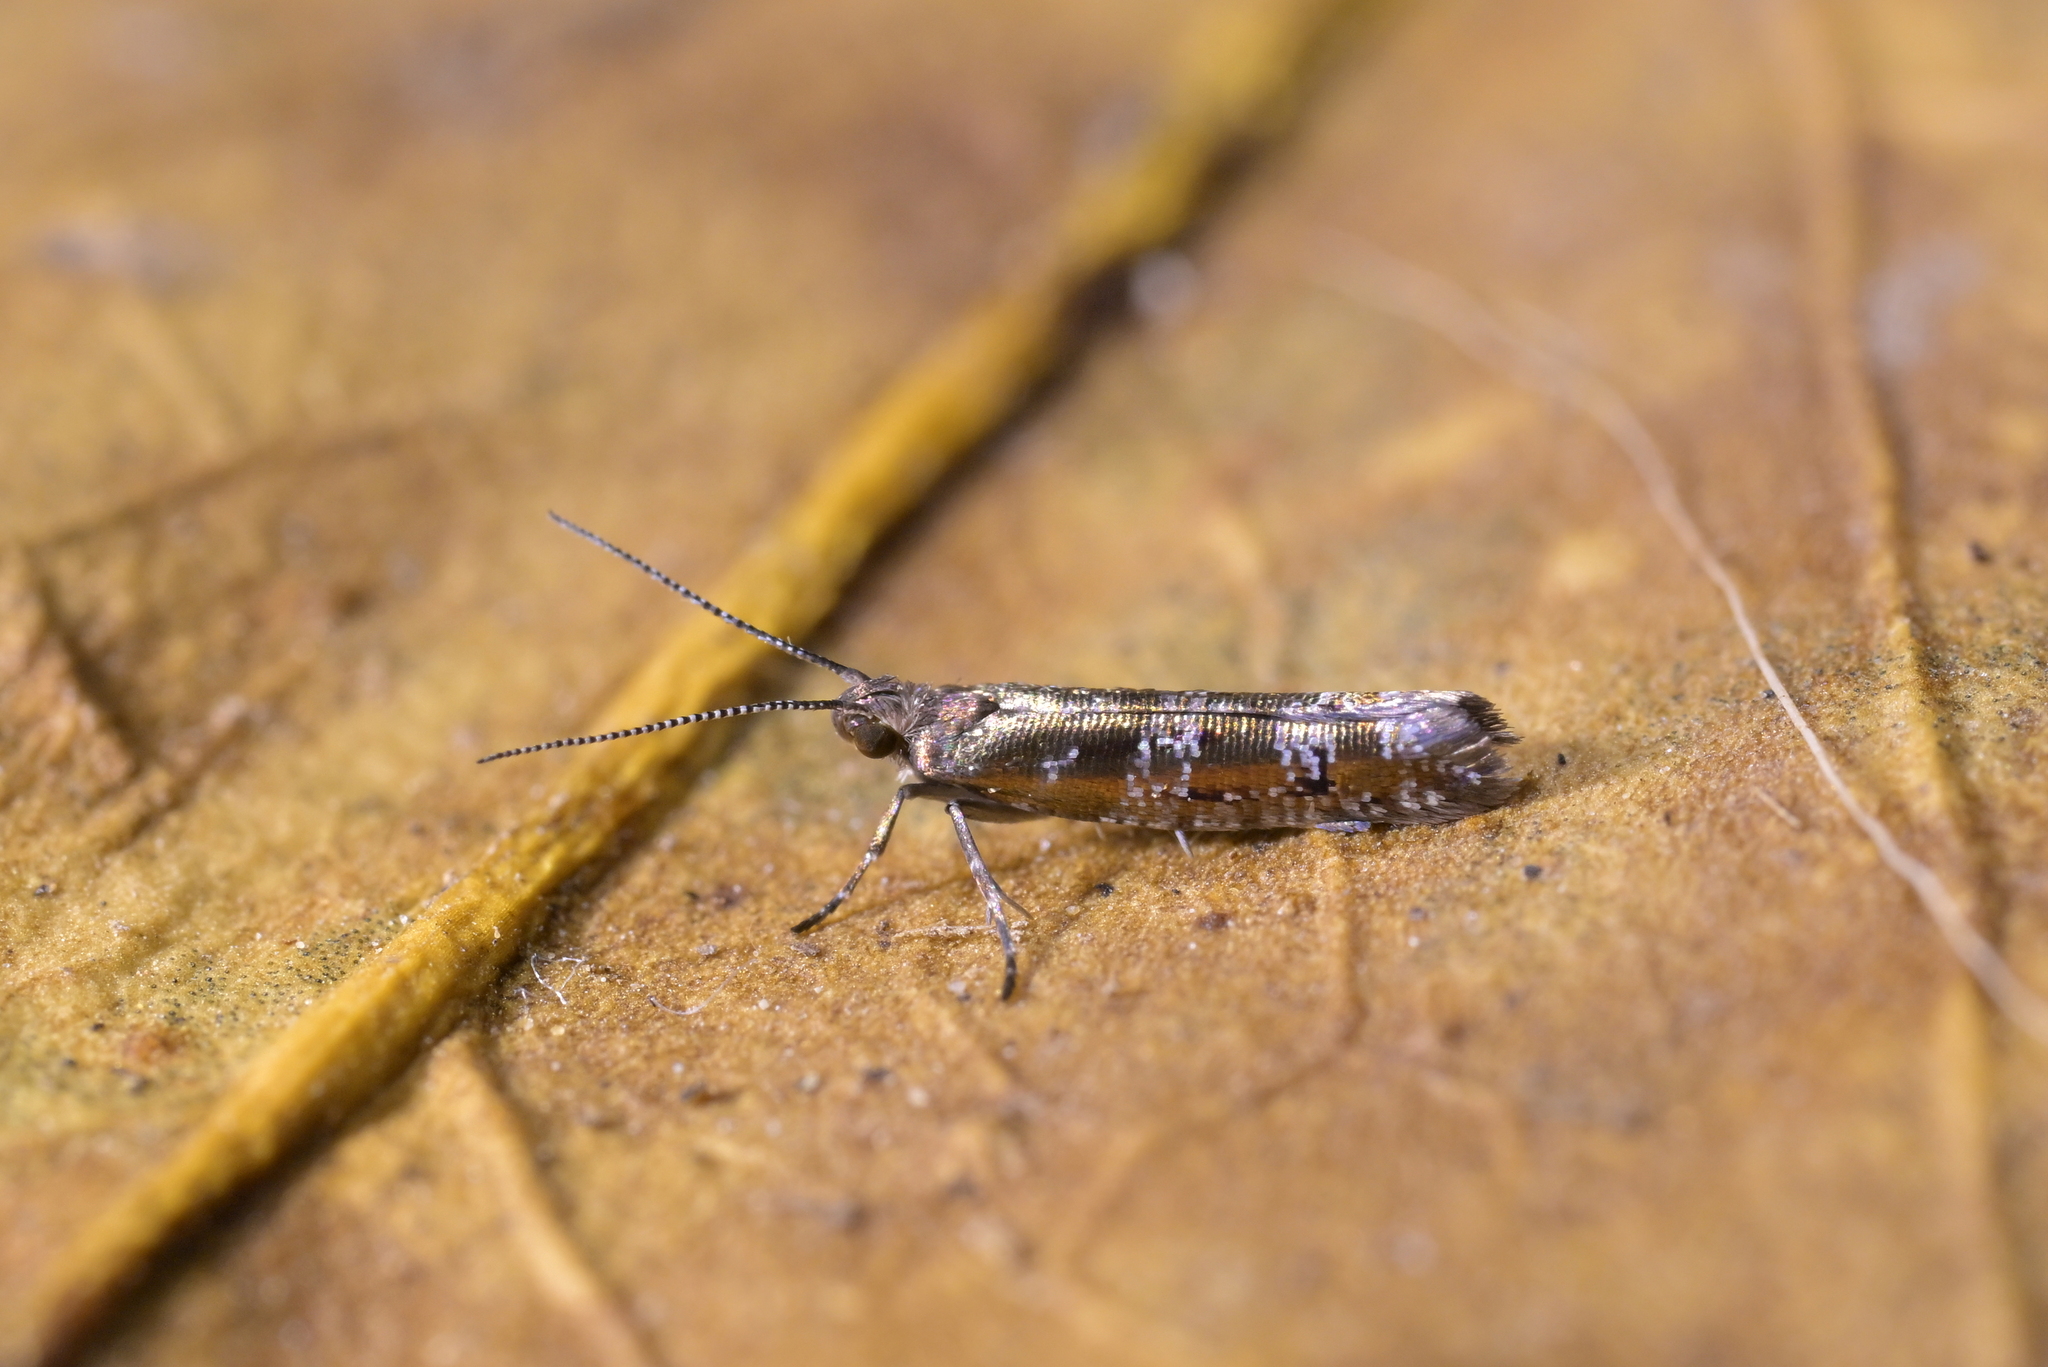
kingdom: Animalia
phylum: Arthropoda
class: Insecta
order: Lepidoptera
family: Glyphipterigidae
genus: Chrysorthenches
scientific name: Chrysorthenches drosochalca
